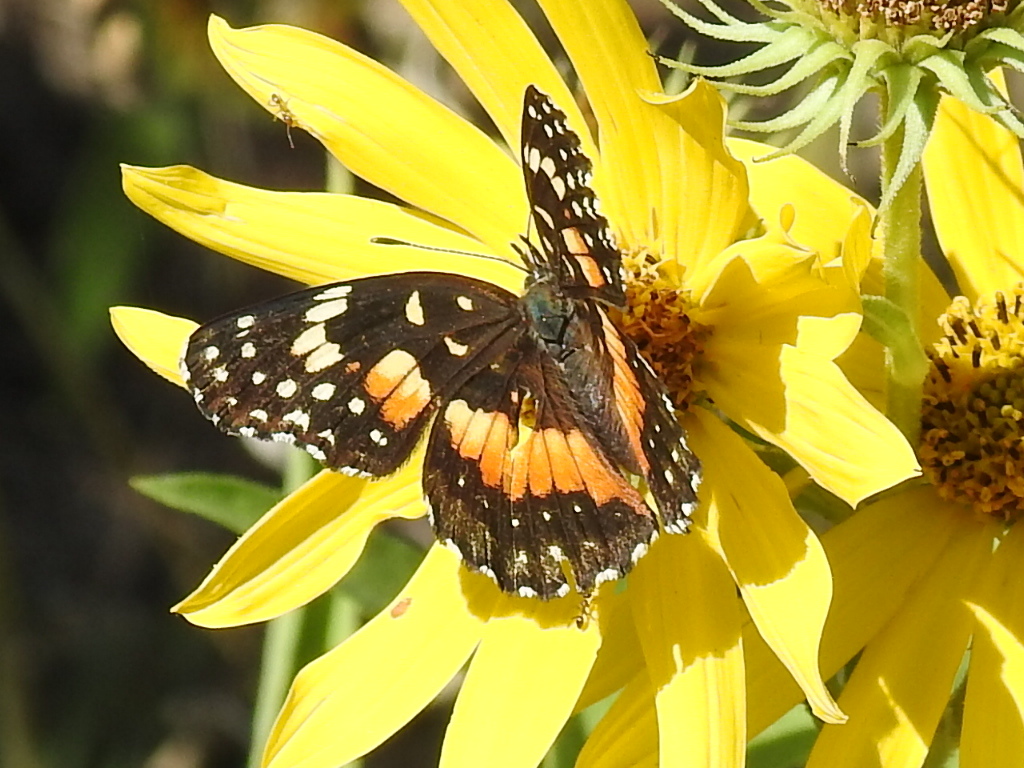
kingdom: Animalia
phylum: Arthropoda
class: Insecta
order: Lepidoptera
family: Nymphalidae
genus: Chlosyne
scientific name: Chlosyne lacinia
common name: Bordered patch
